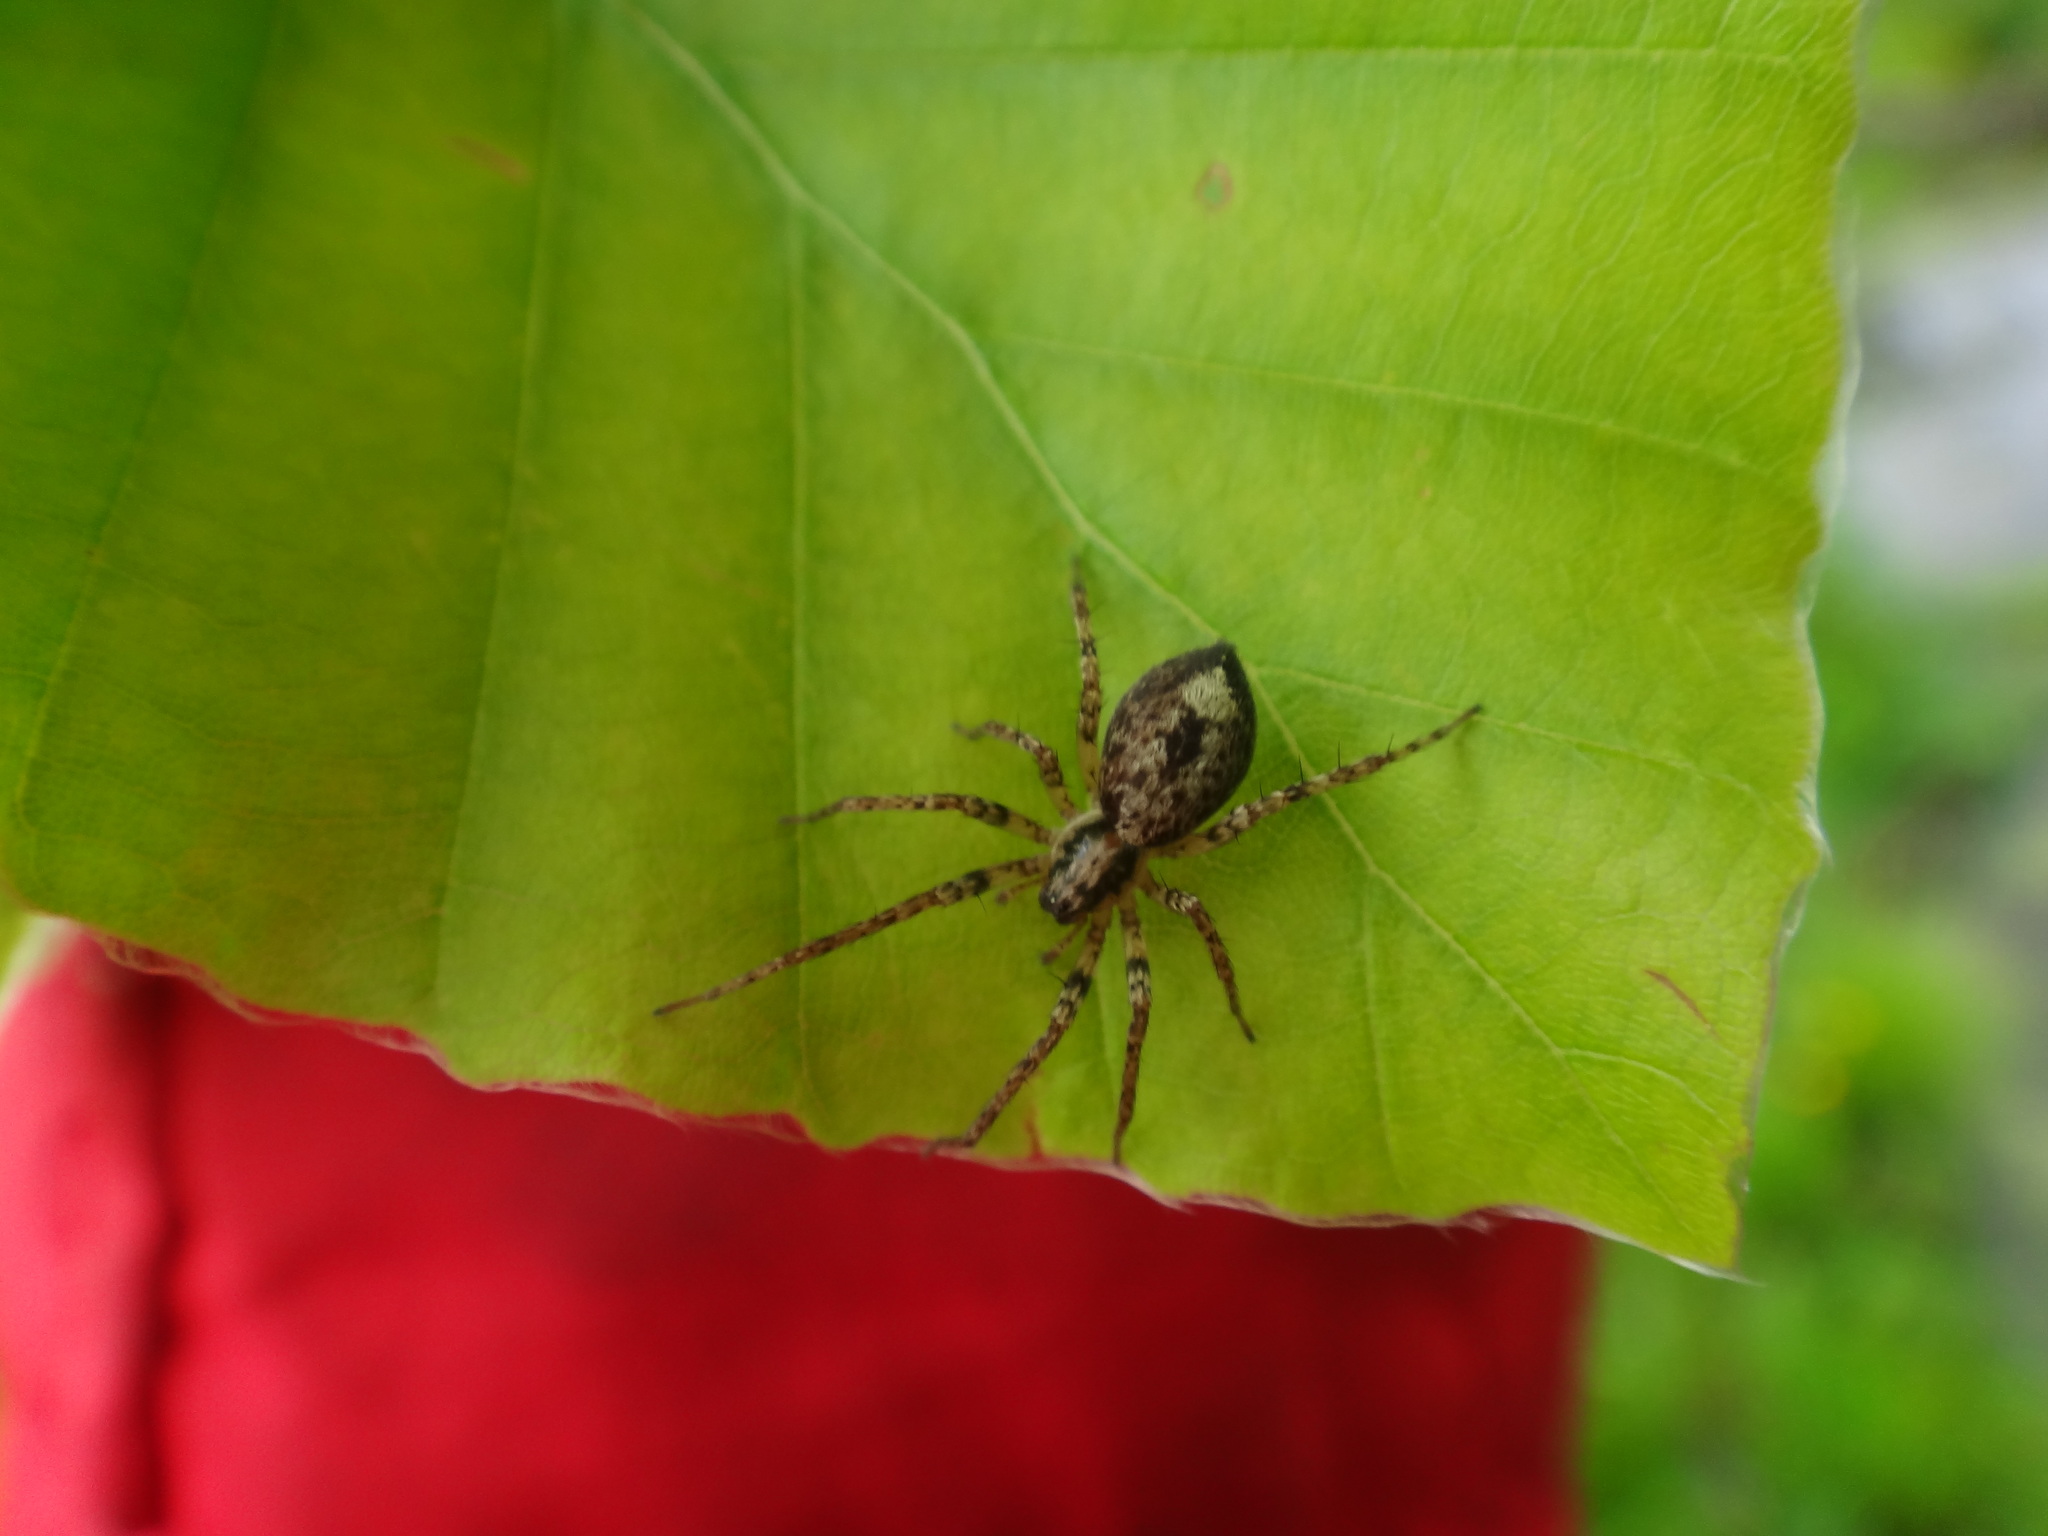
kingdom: Animalia
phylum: Arthropoda
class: Arachnida
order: Araneae
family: Anyphaenidae
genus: Anyphaena
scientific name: Anyphaena accentuata
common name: Buzzing spider
